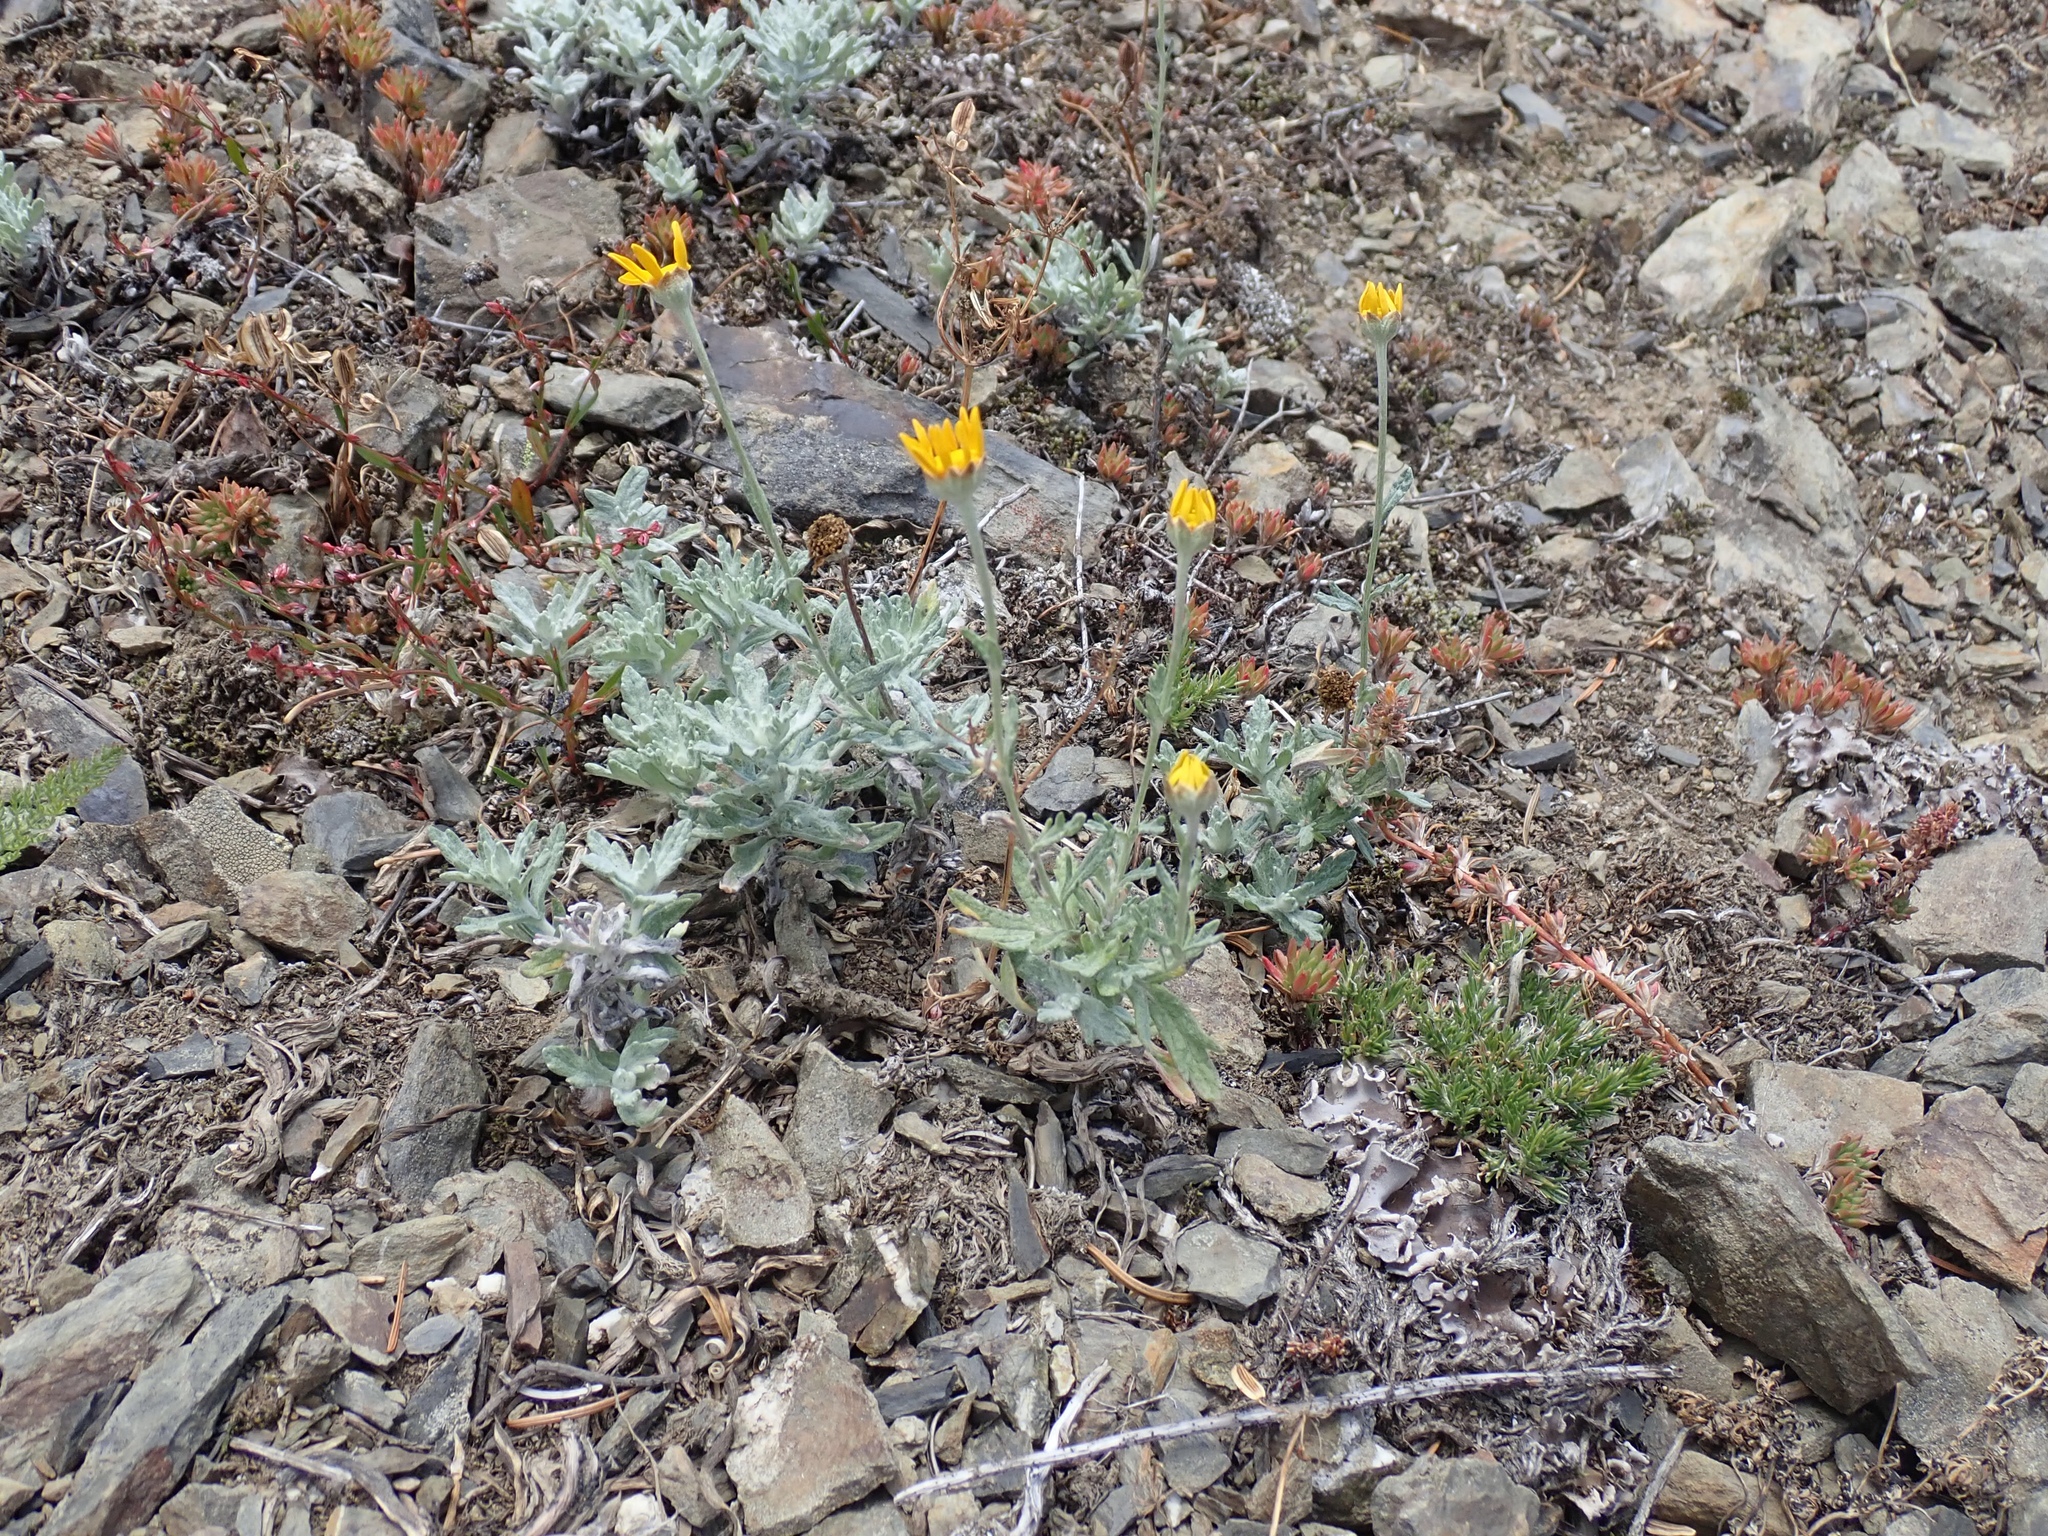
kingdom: Plantae
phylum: Tracheophyta
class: Magnoliopsida
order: Asterales
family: Asteraceae
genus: Eriophyllum
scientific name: Eriophyllum lanatum
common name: Common woolly-sunflower
